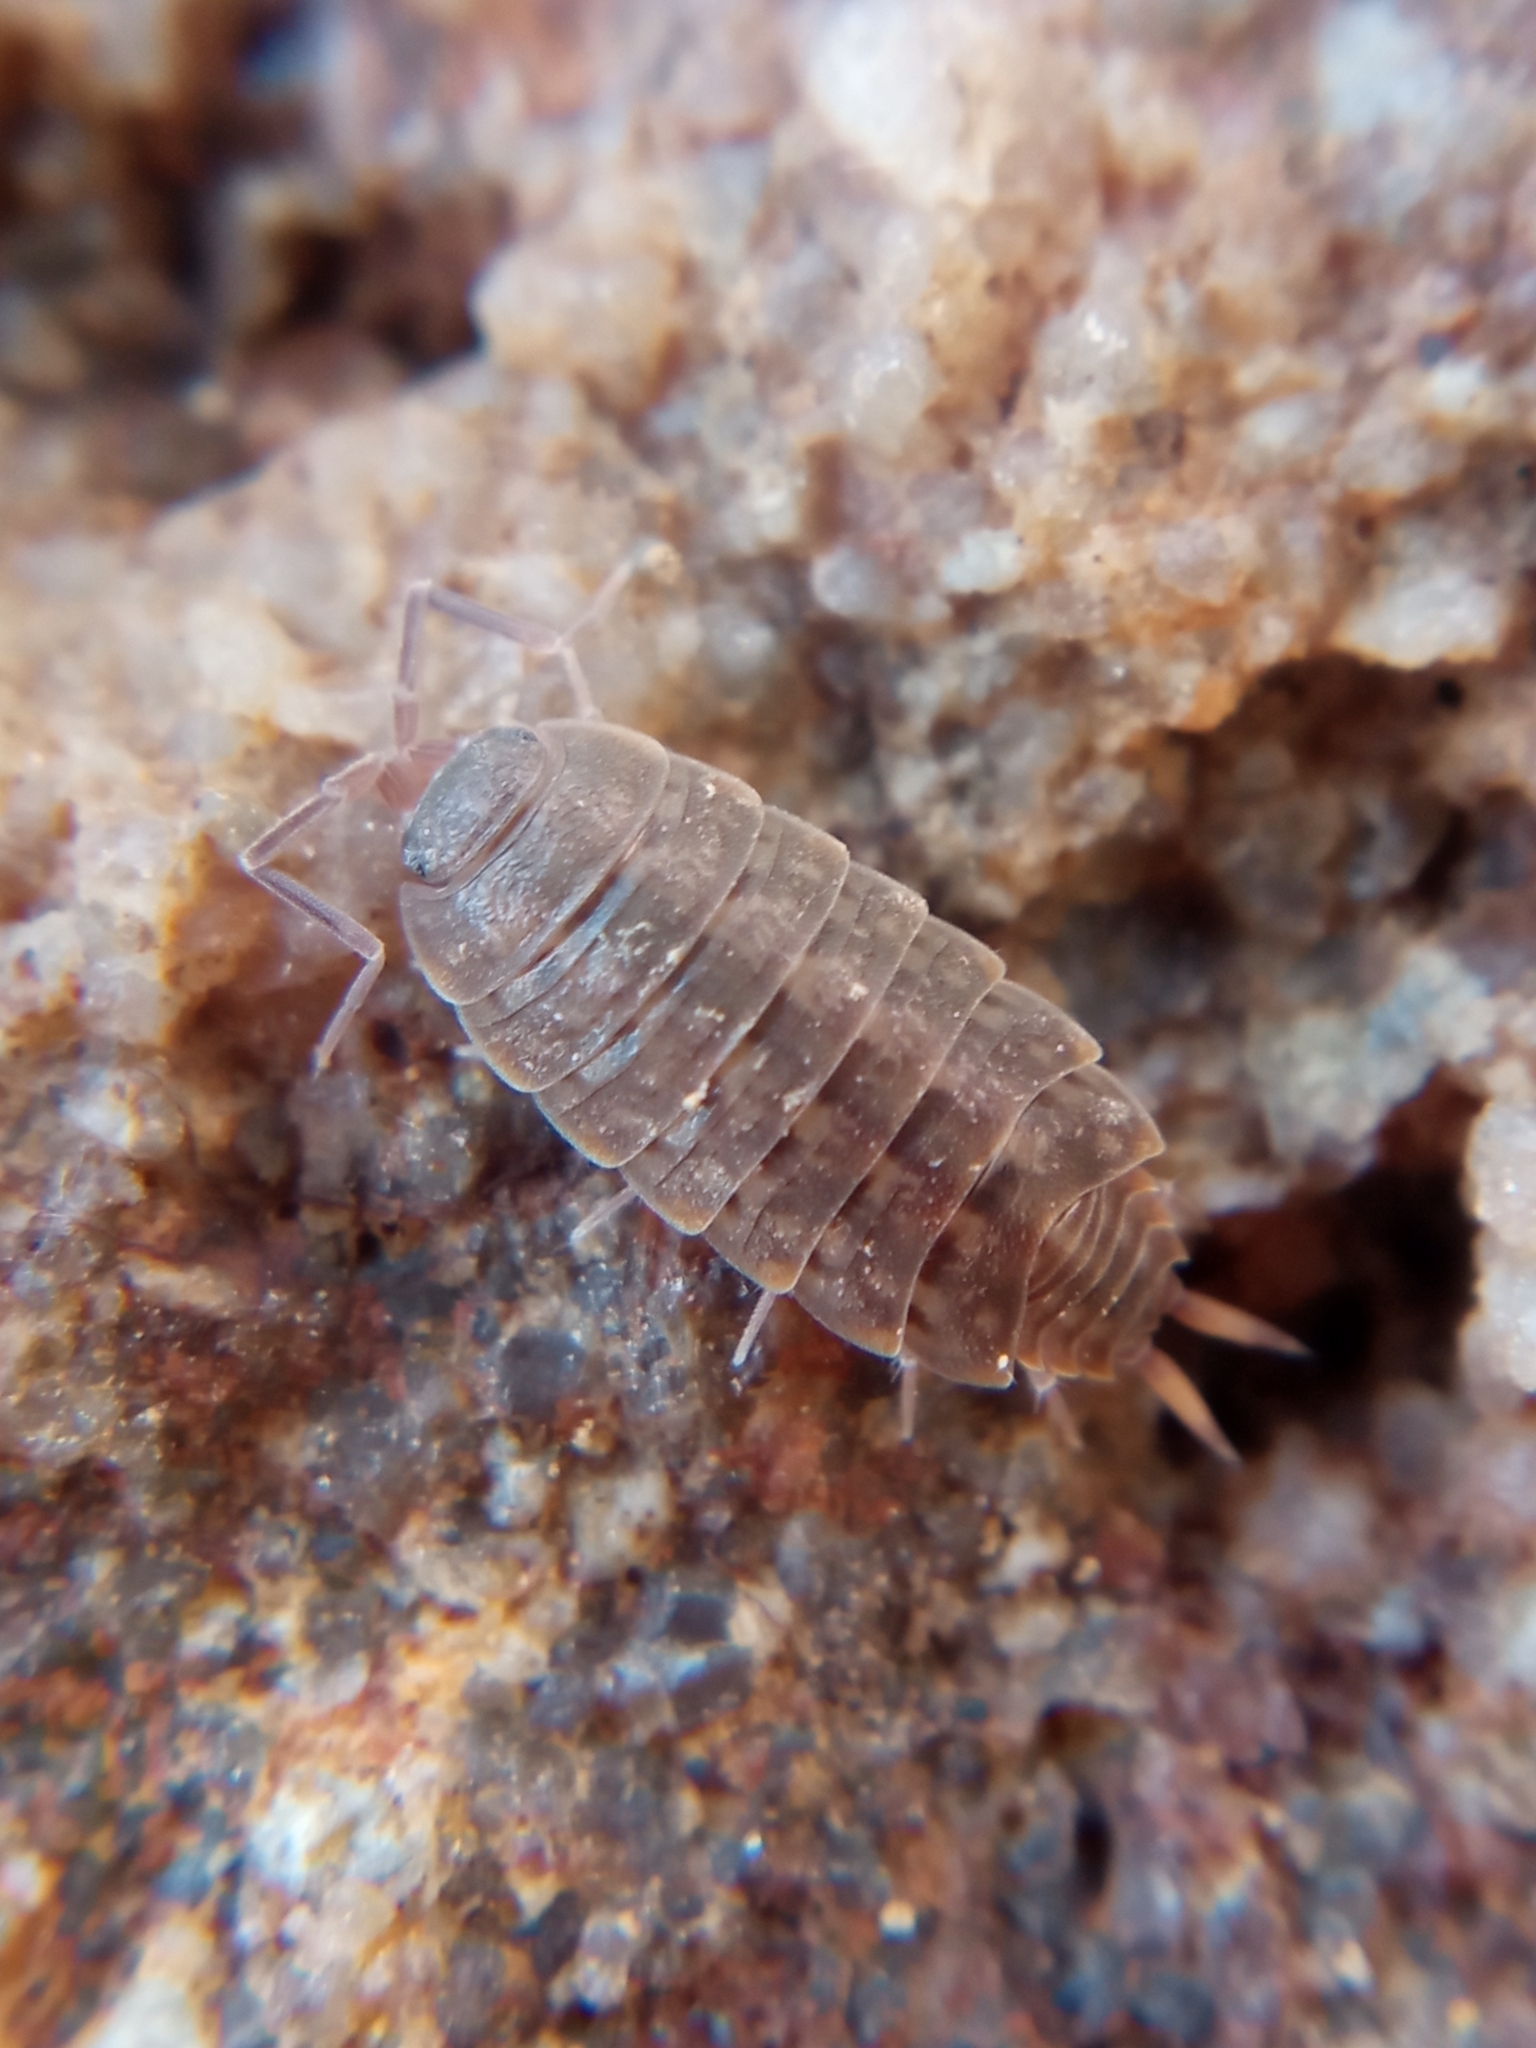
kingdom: Animalia
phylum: Arthropoda
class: Malacostraca
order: Isopoda
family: Agnaridae
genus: Orthometopon
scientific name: Orthometopon planum
